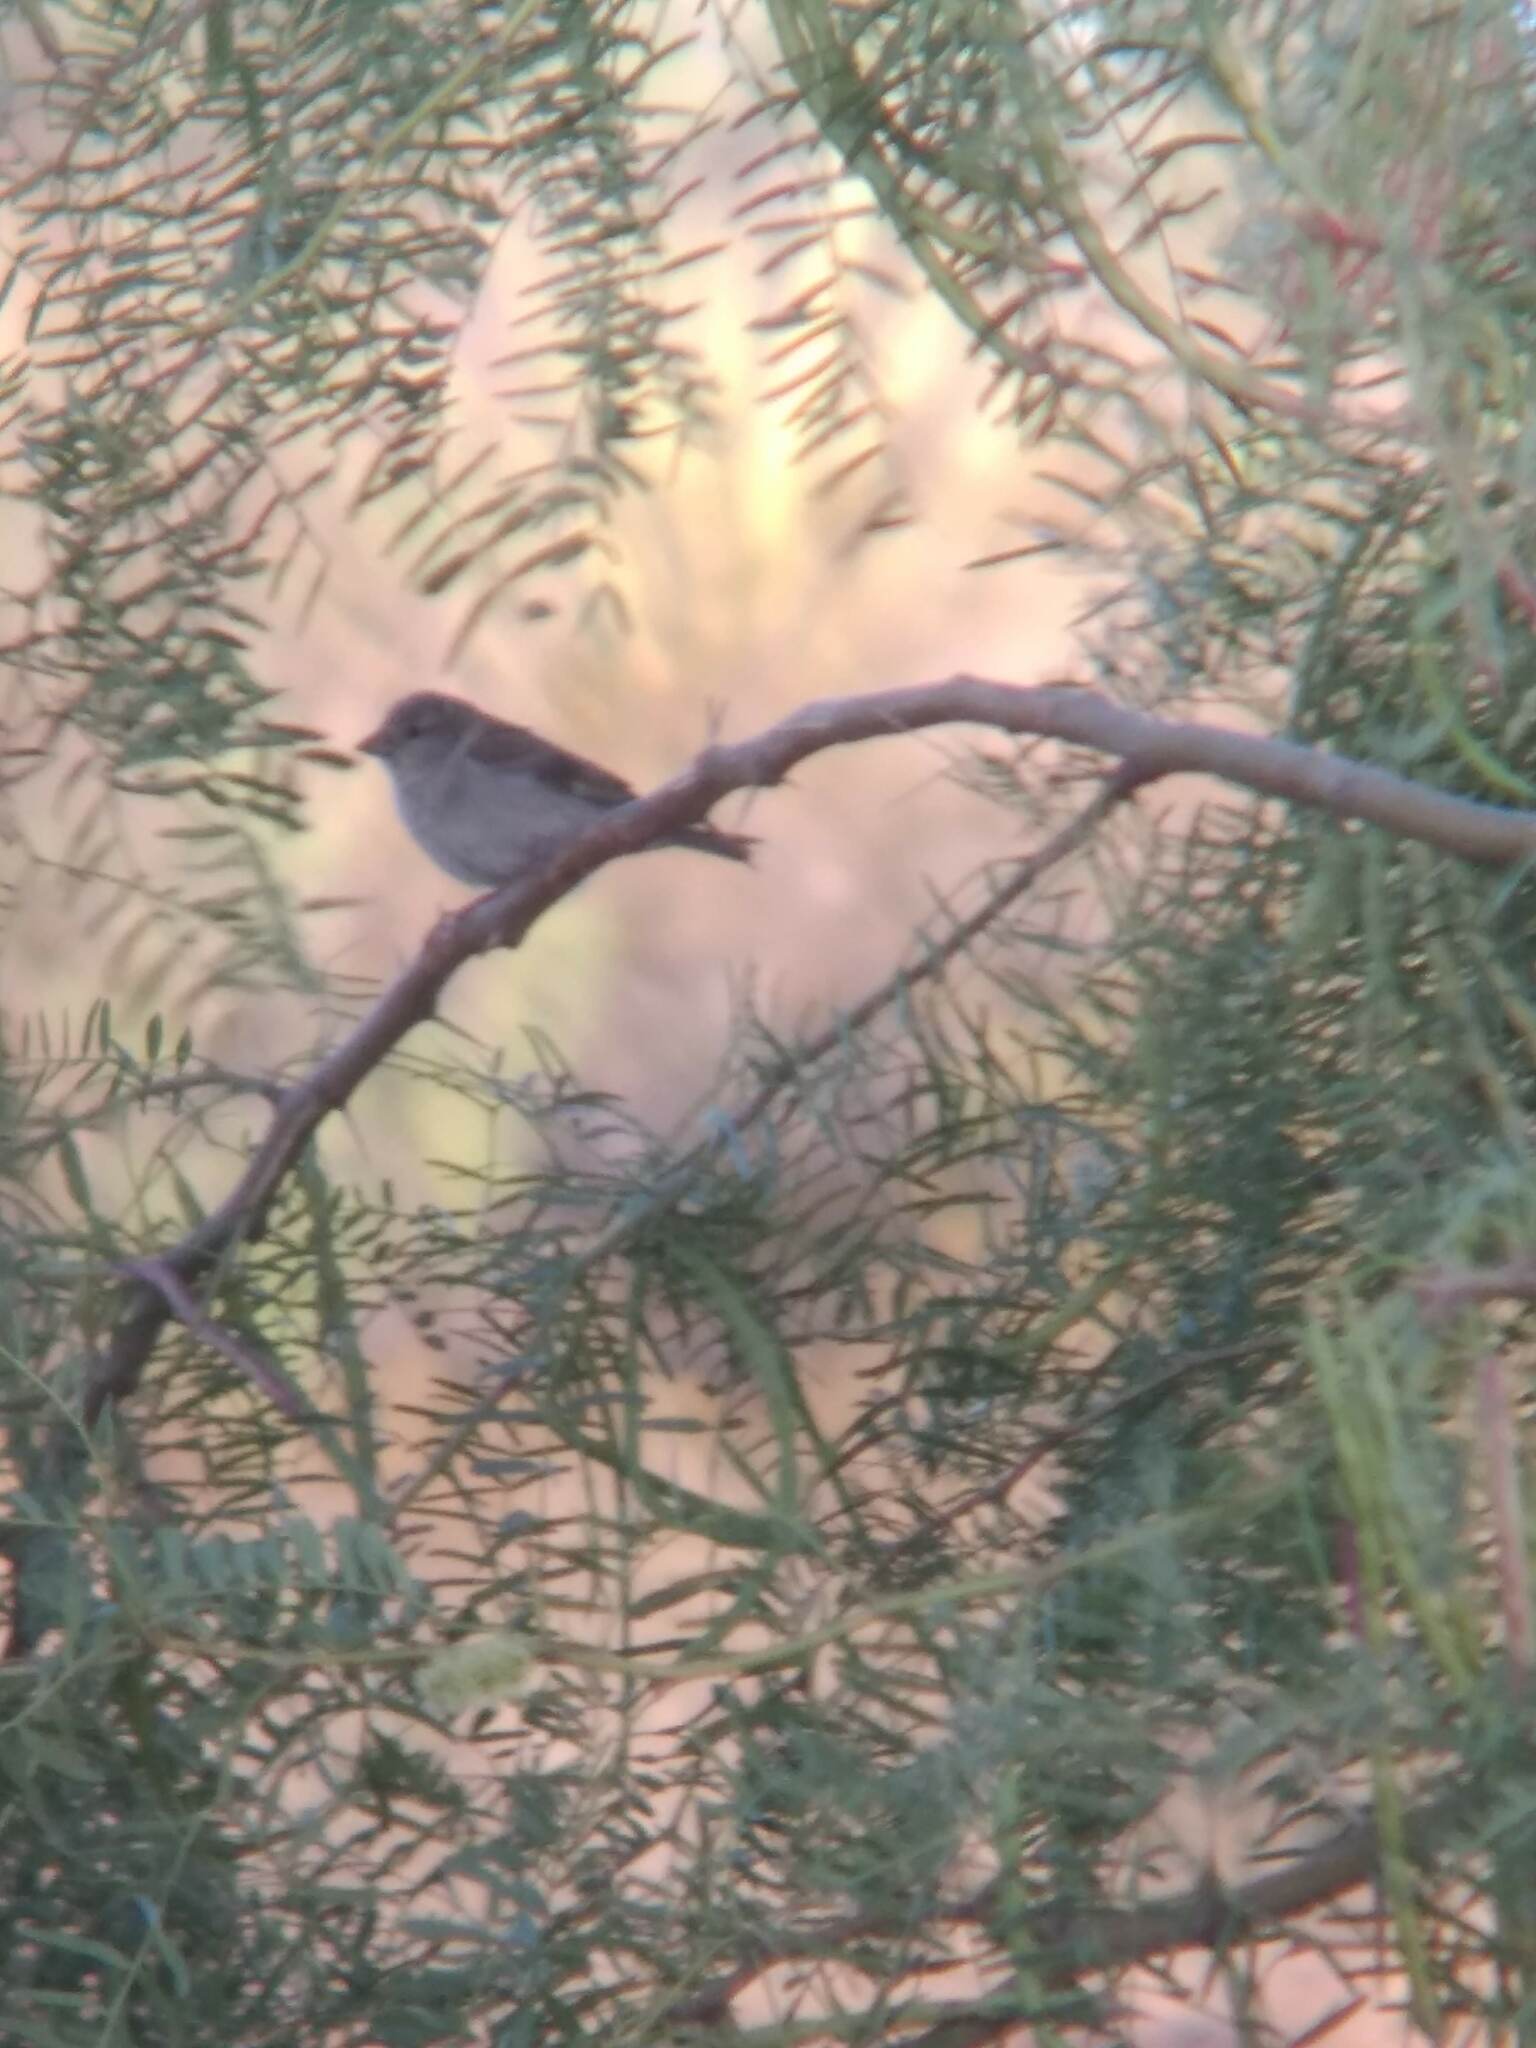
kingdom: Animalia
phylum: Chordata
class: Aves
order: Passeriformes
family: Passeridae
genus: Passer
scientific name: Passer domesticus
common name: House sparrow
